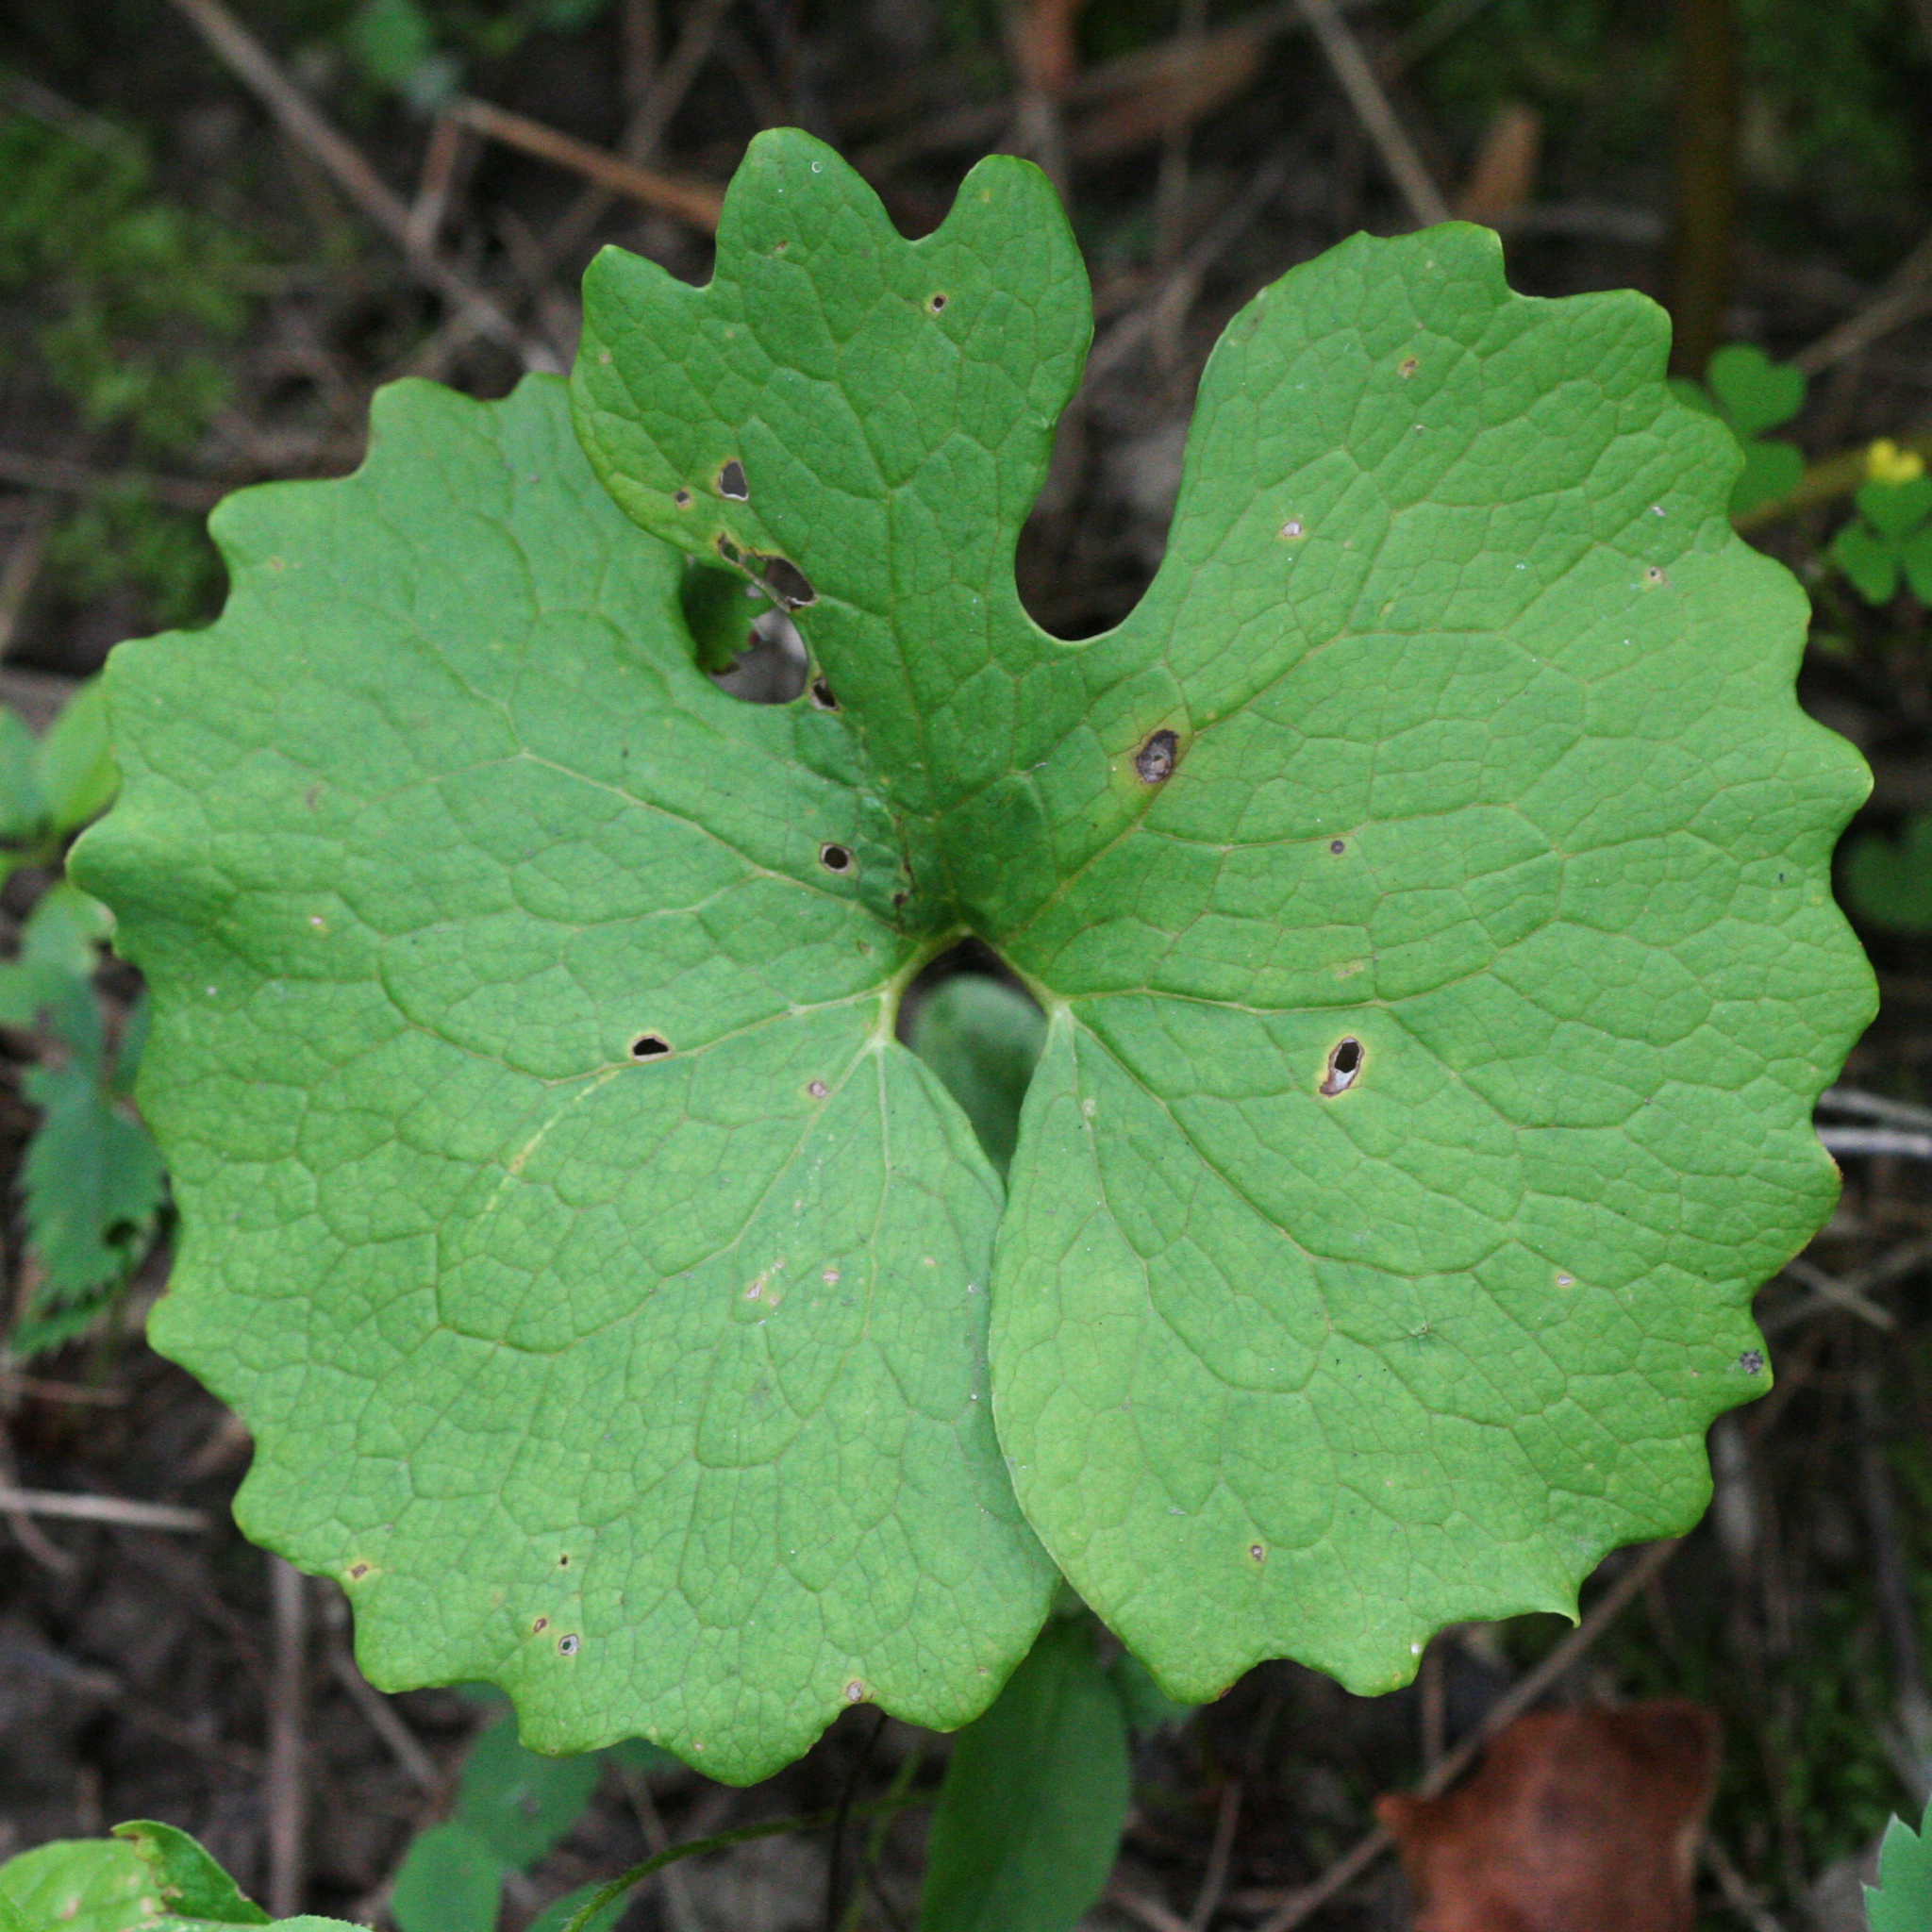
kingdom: Plantae
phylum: Tracheophyta
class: Magnoliopsida
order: Ranunculales
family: Papaveraceae
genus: Sanguinaria
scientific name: Sanguinaria canadensis
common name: Bloodroot
